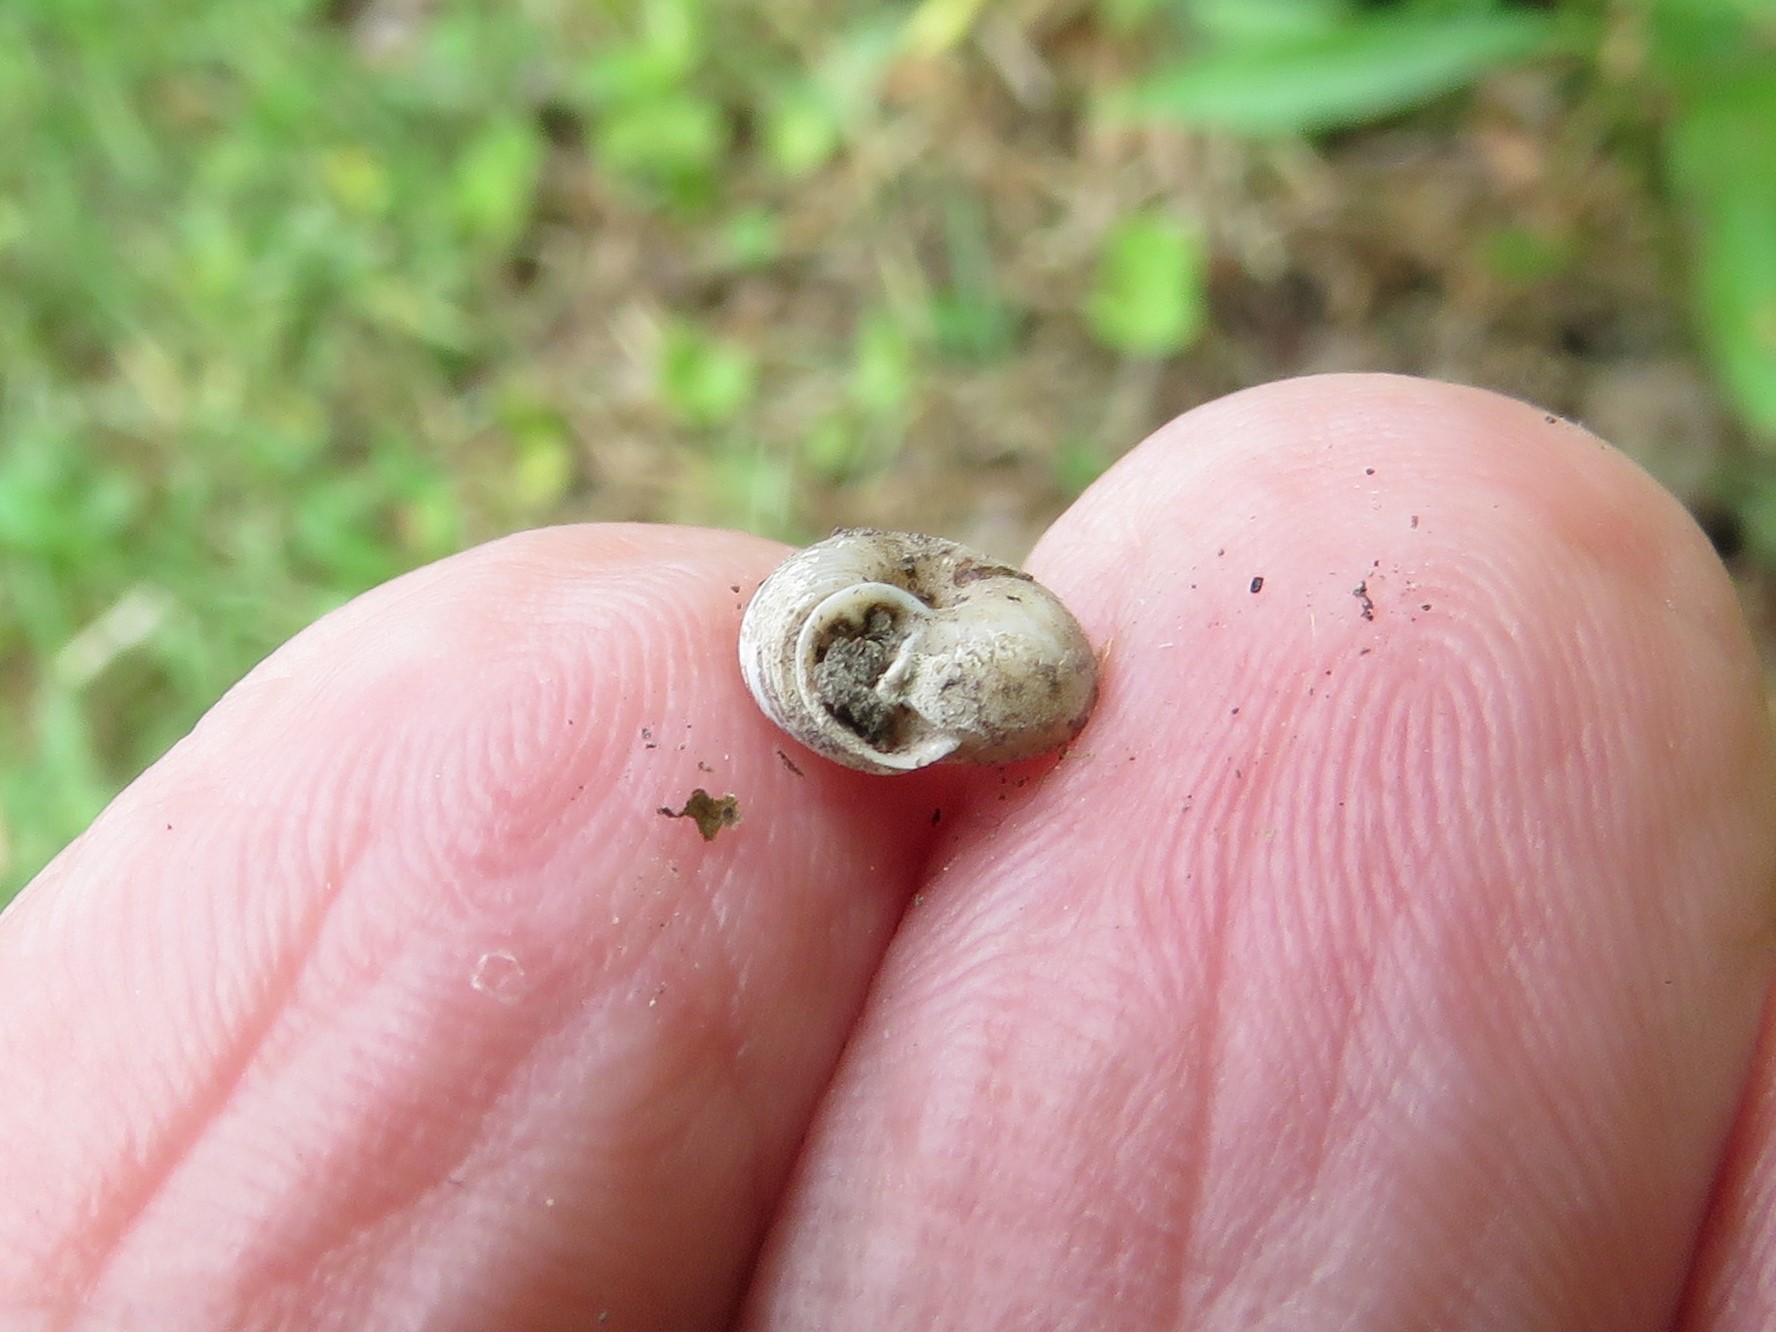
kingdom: Animalia
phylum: Mollusca
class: Gastropoda
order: Stylommatophora
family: Polygyridae
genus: Linisa
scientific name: Linisa texasiana
